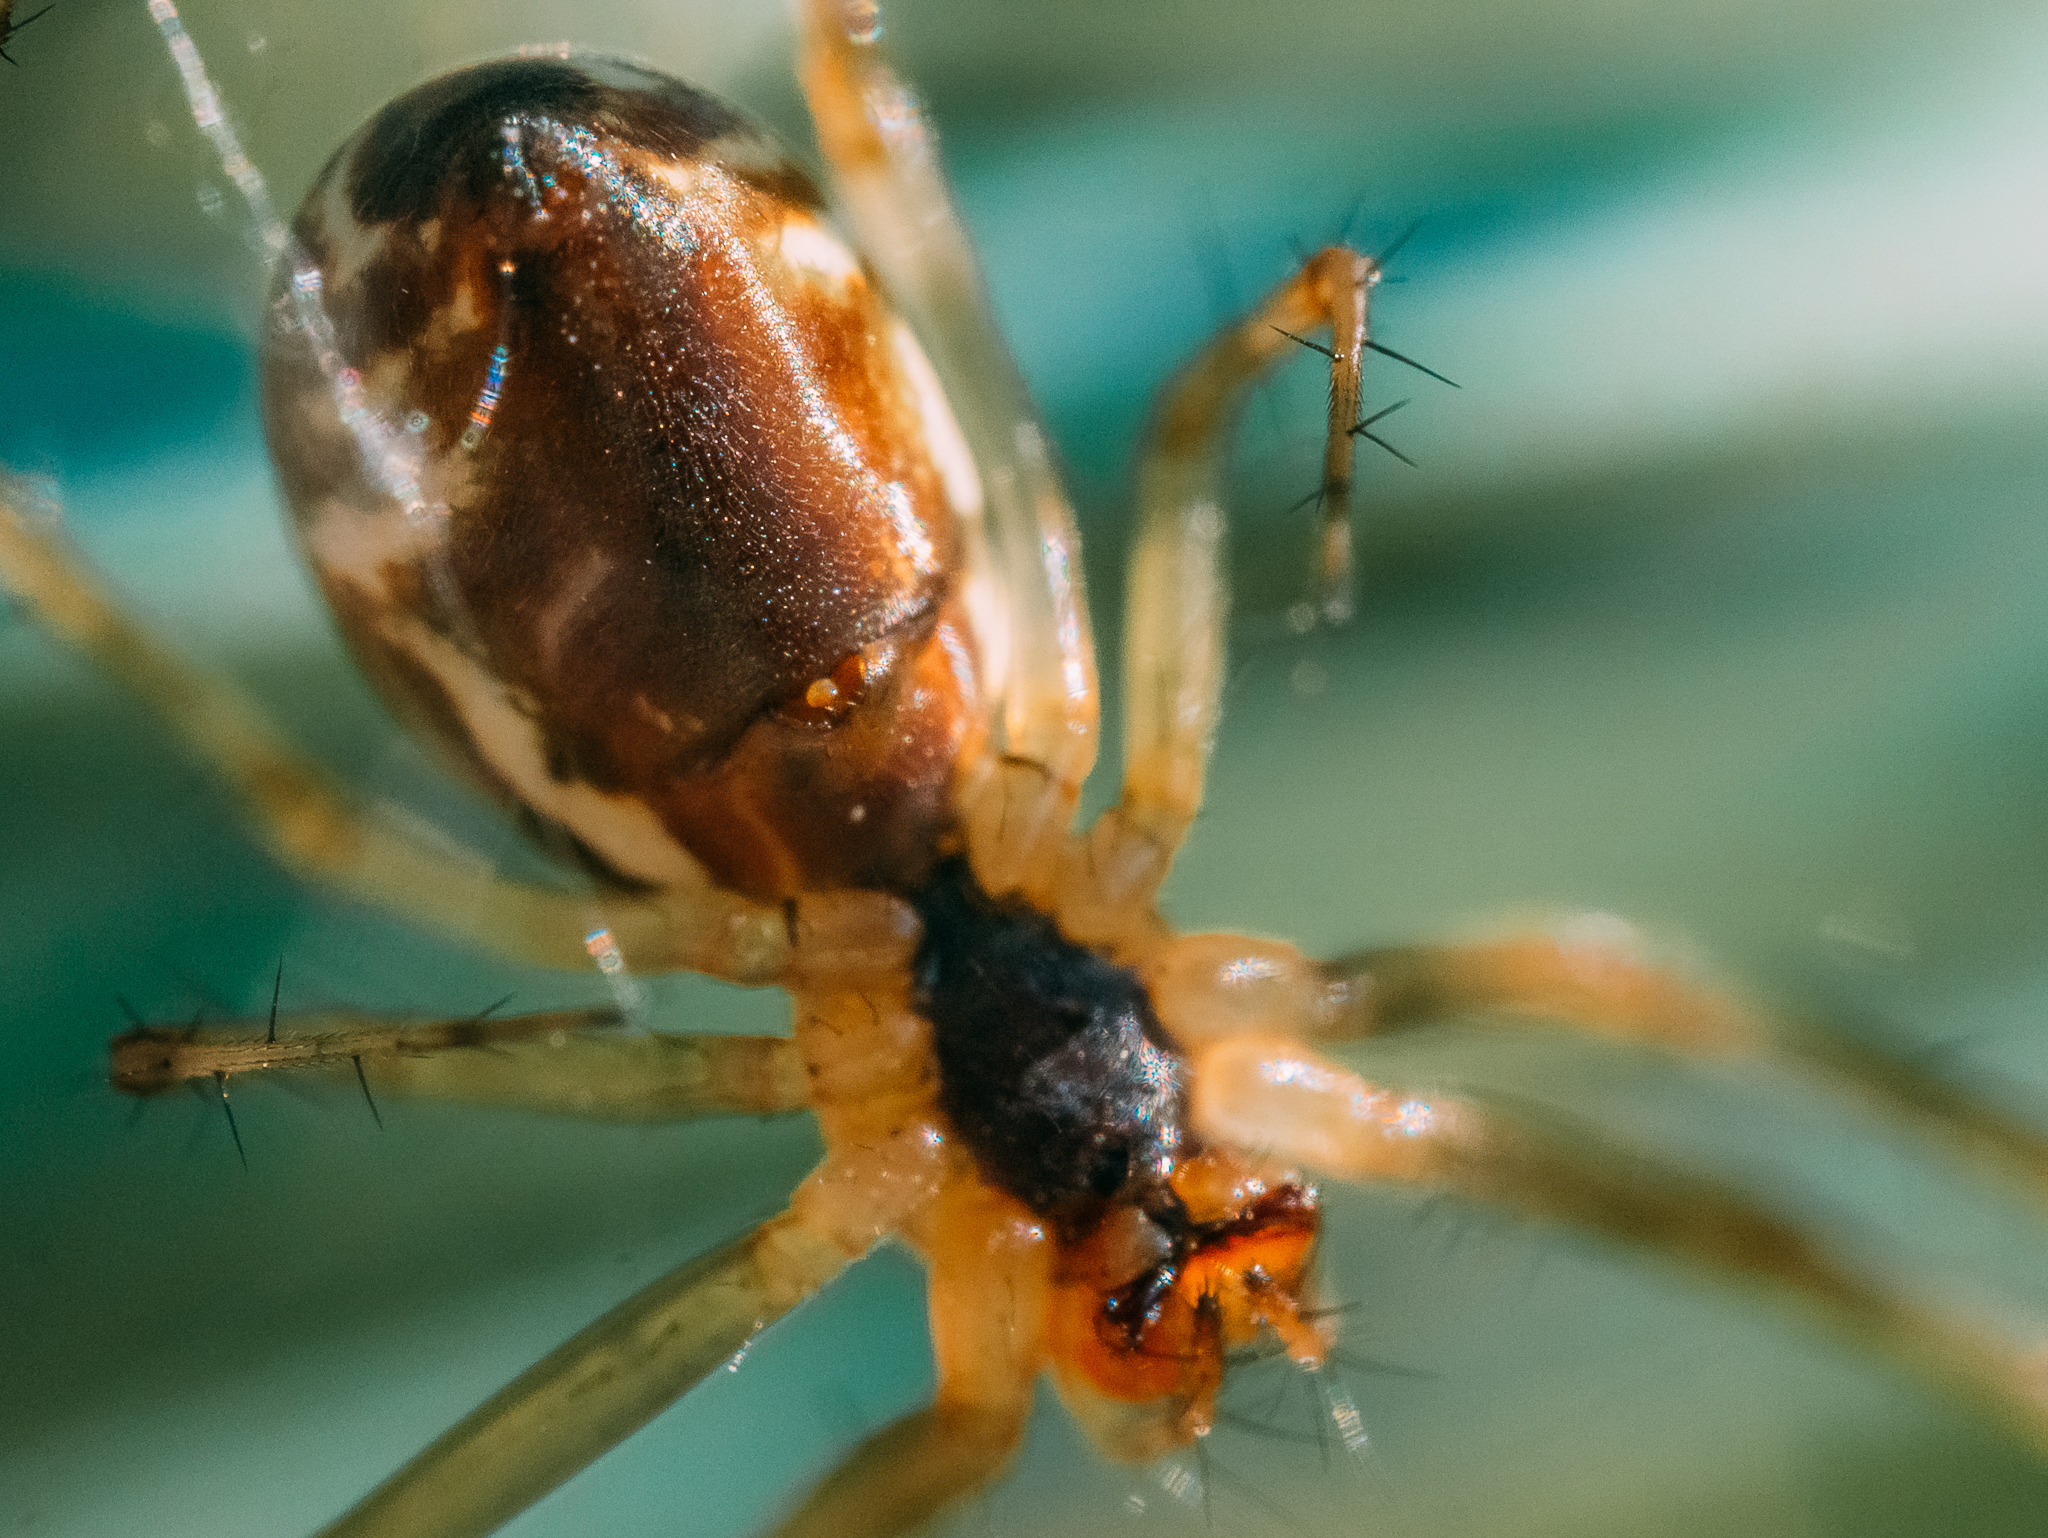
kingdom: Animalia
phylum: Arthropoda
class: Arachnida
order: Araneae
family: Linyphiidae
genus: Linyphia
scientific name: Linyphia triangularis
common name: Money spider
